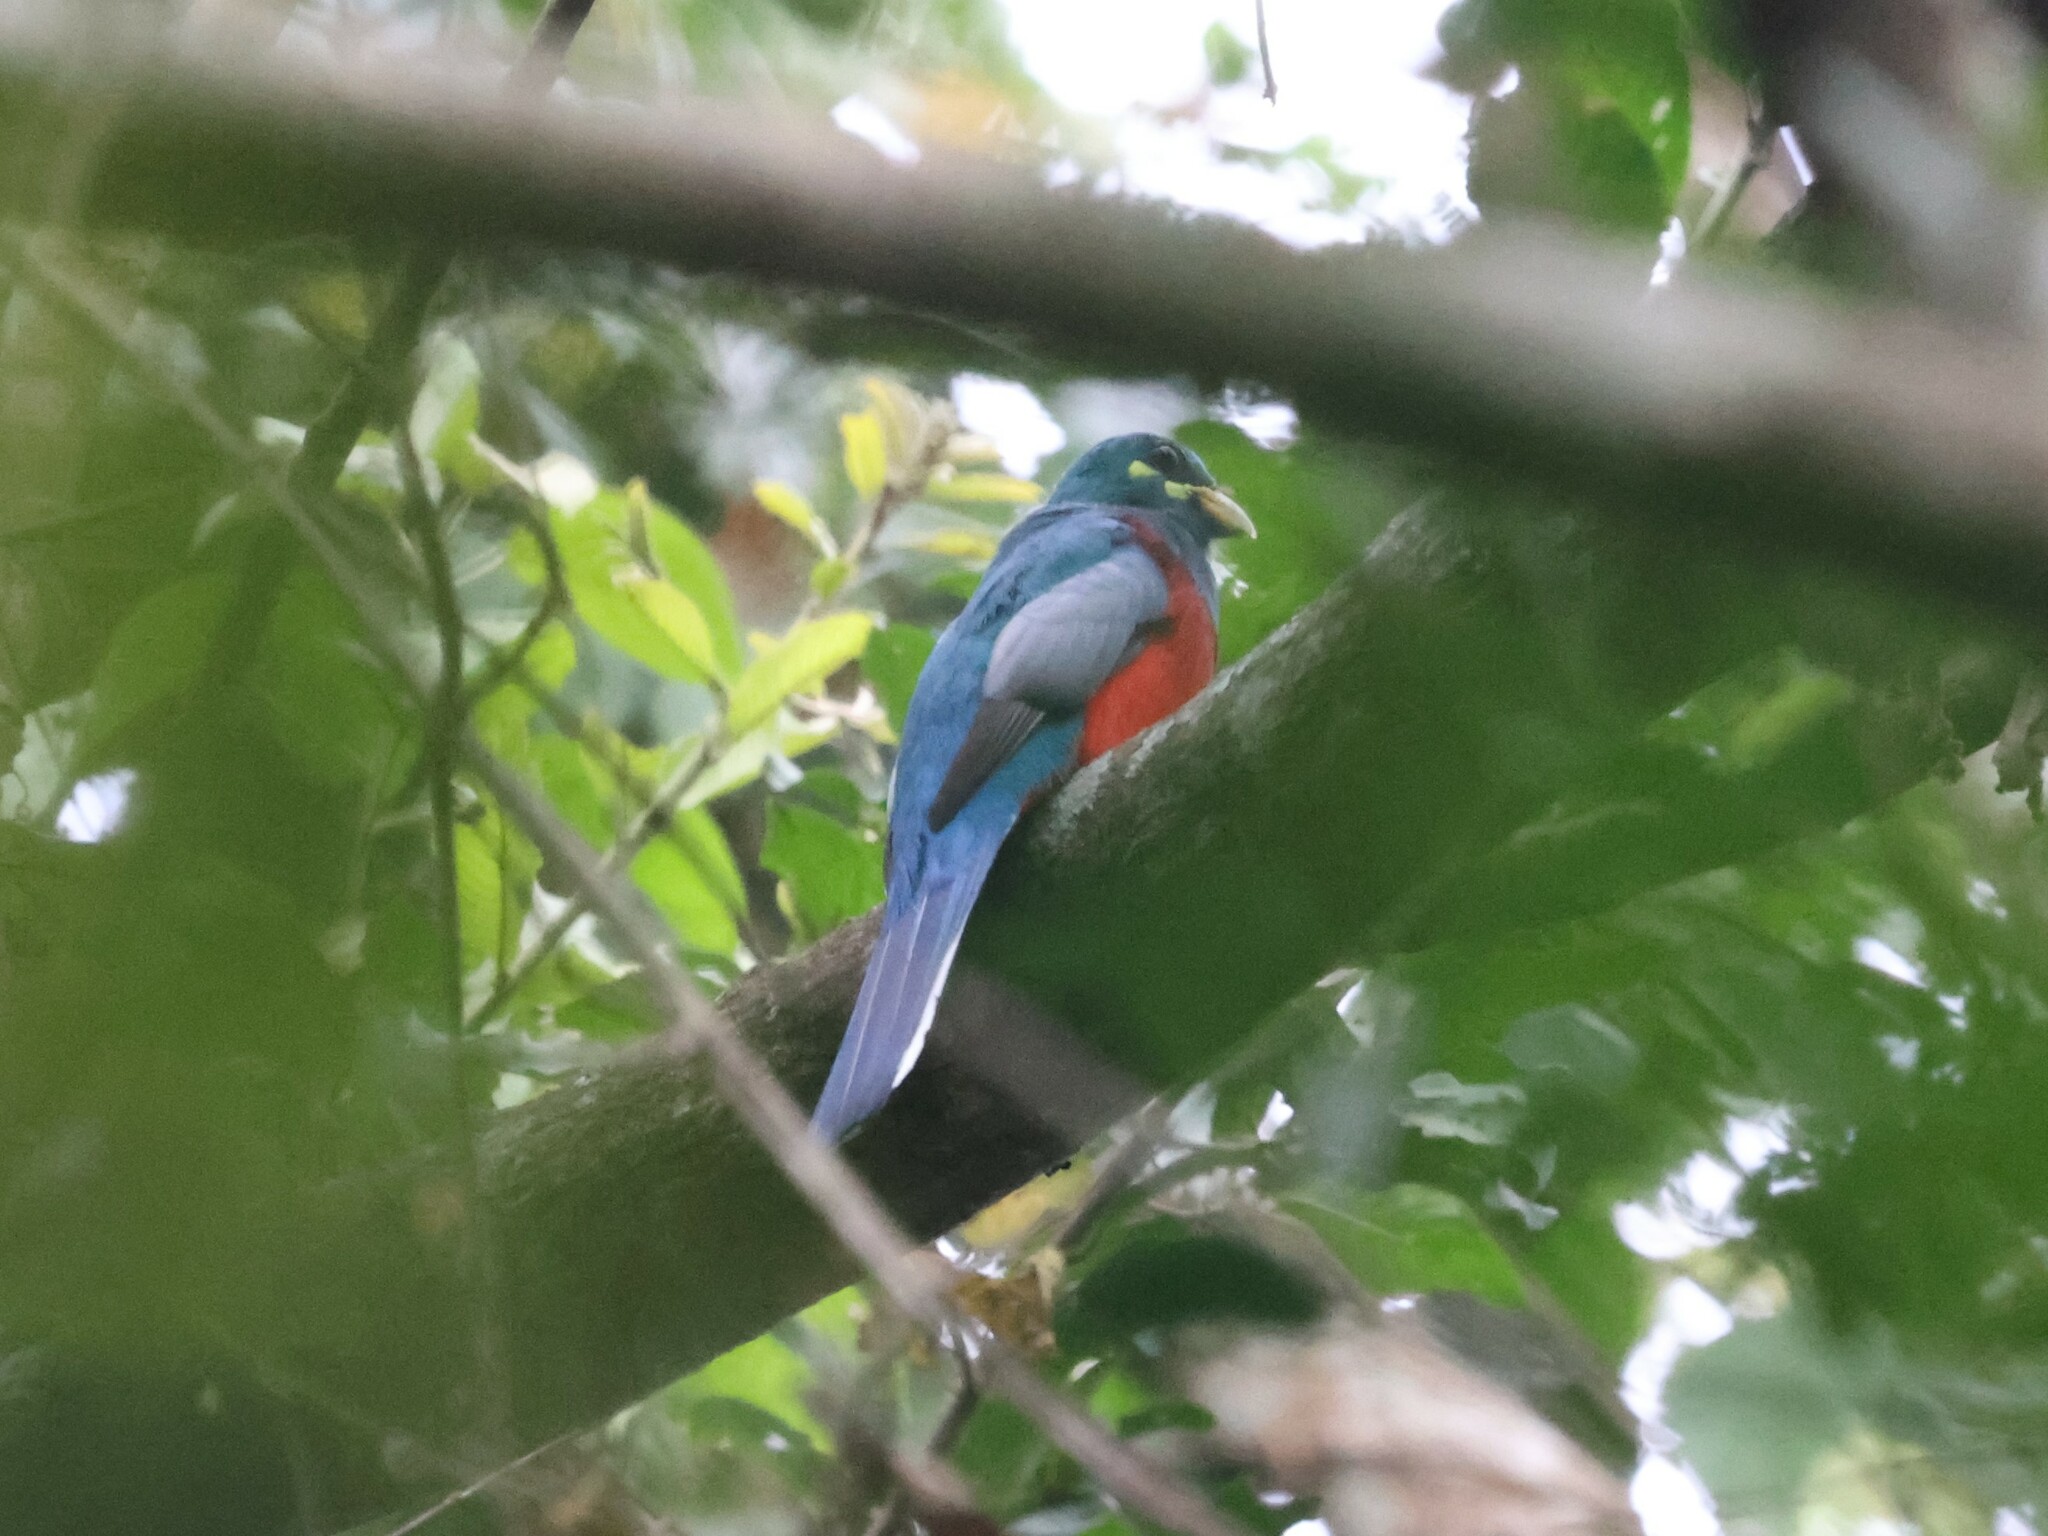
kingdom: Animalia
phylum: Chordata
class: Aves
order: Trogoniformes
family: Trogonidae
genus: Apaloderma
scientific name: Apaloderma narina
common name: Narina trogon
